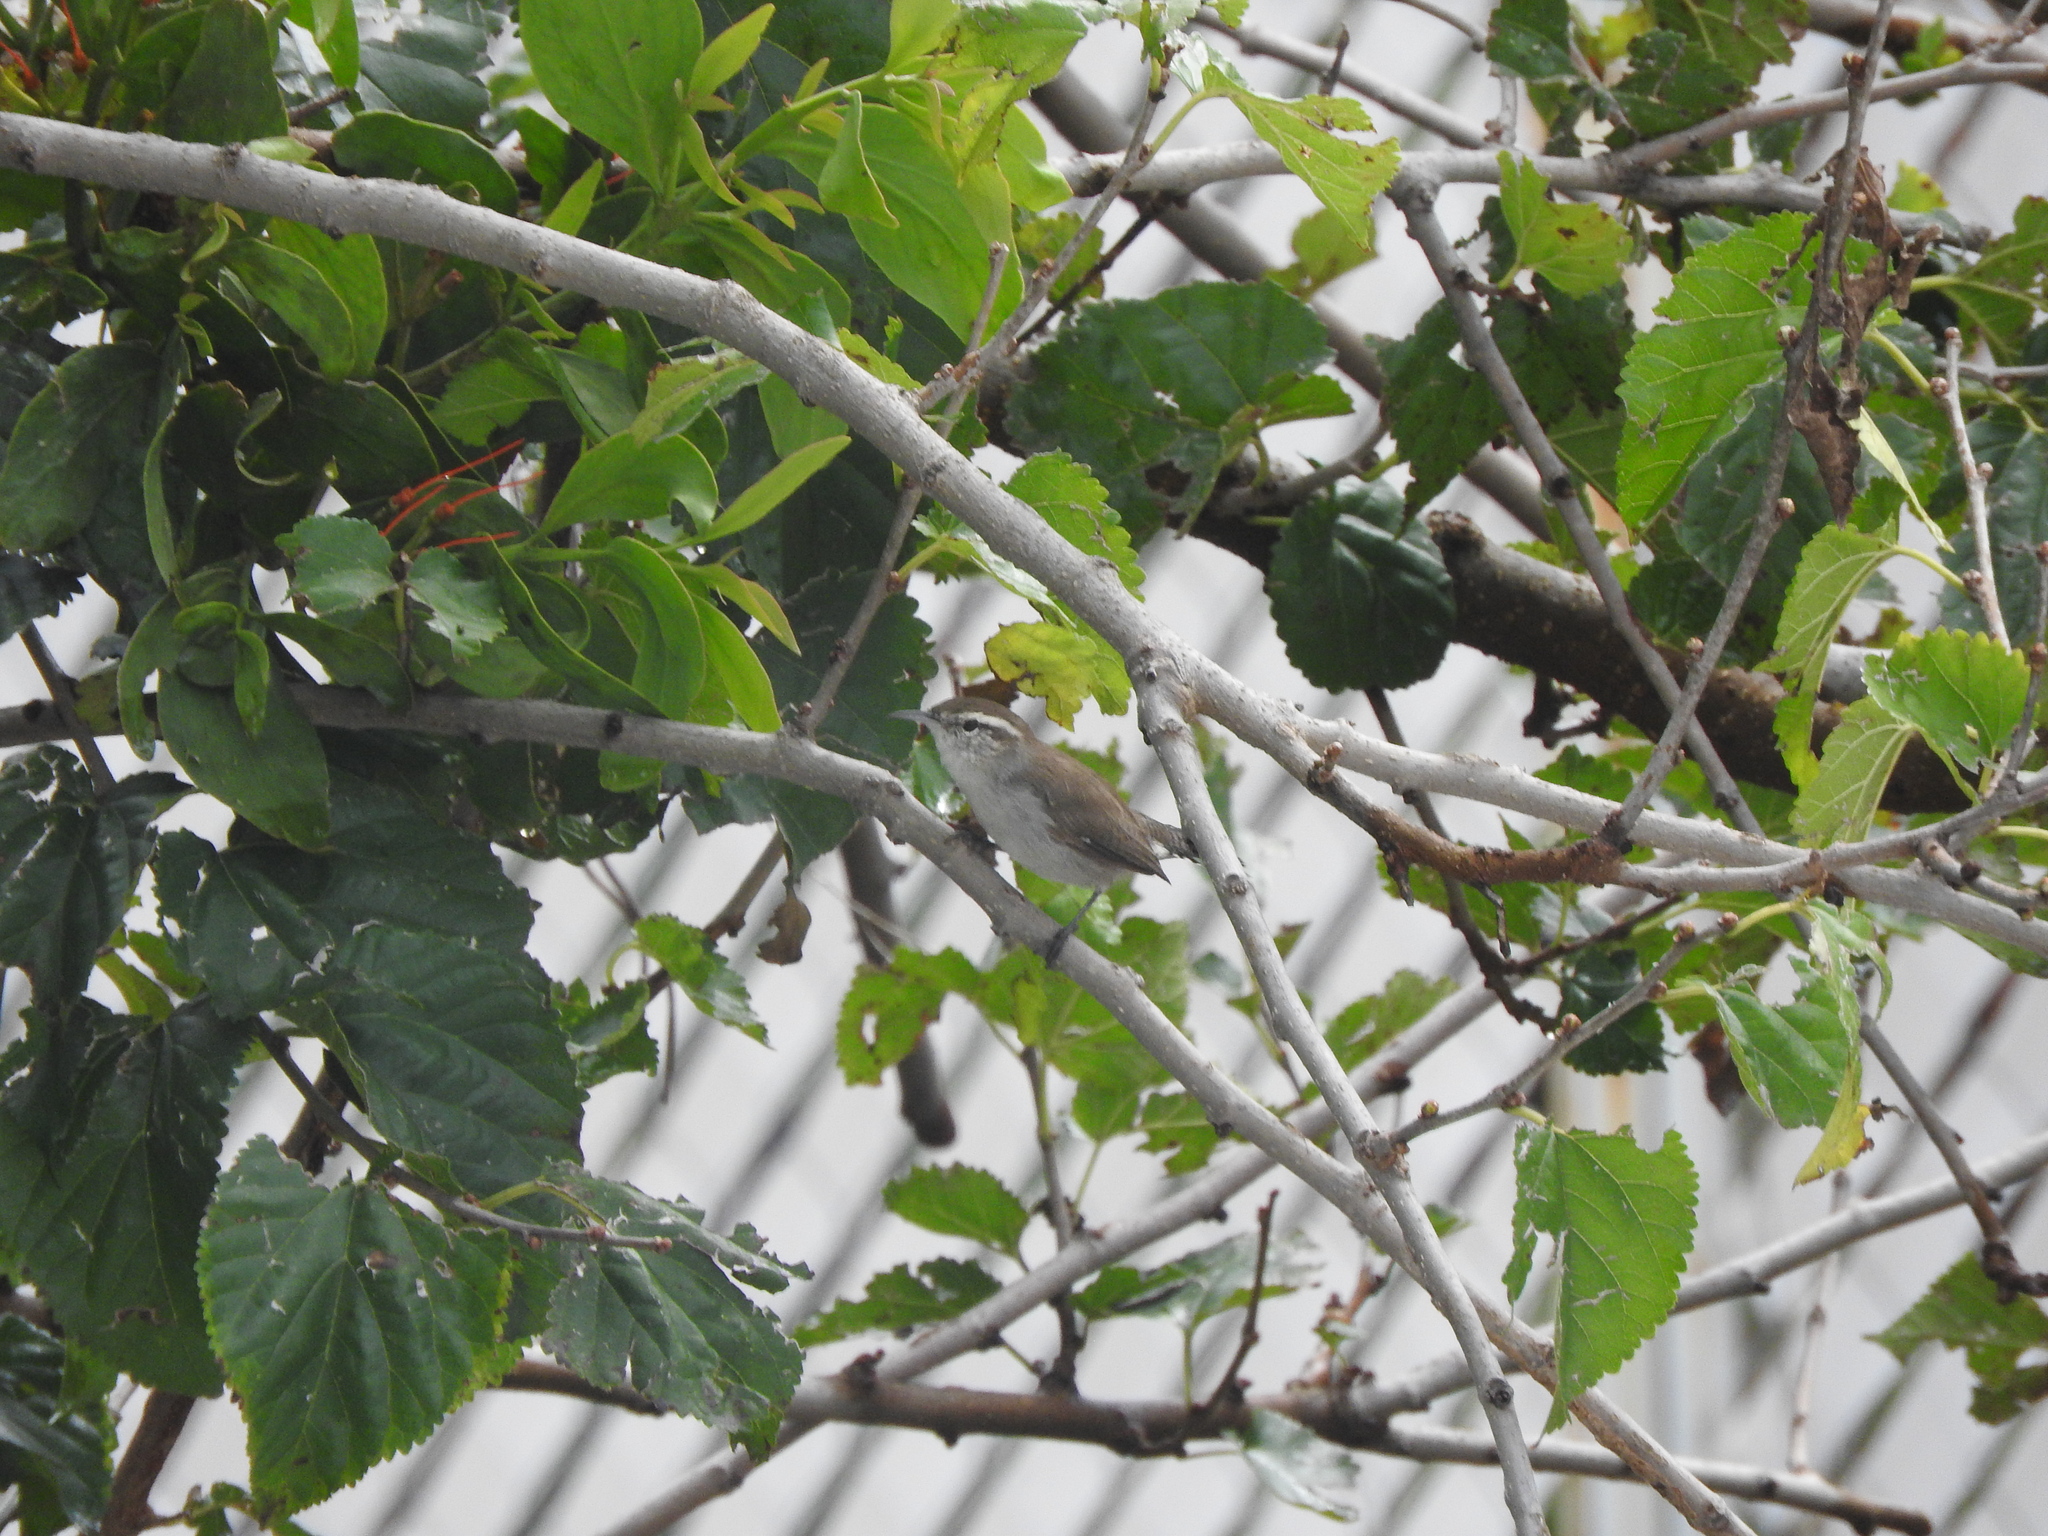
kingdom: Animalia
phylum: Chordata
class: Aves
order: Passeriformes
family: Troglodytidae
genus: Thryomanes
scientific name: Thryomanes bewickii
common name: Bewick's wren
